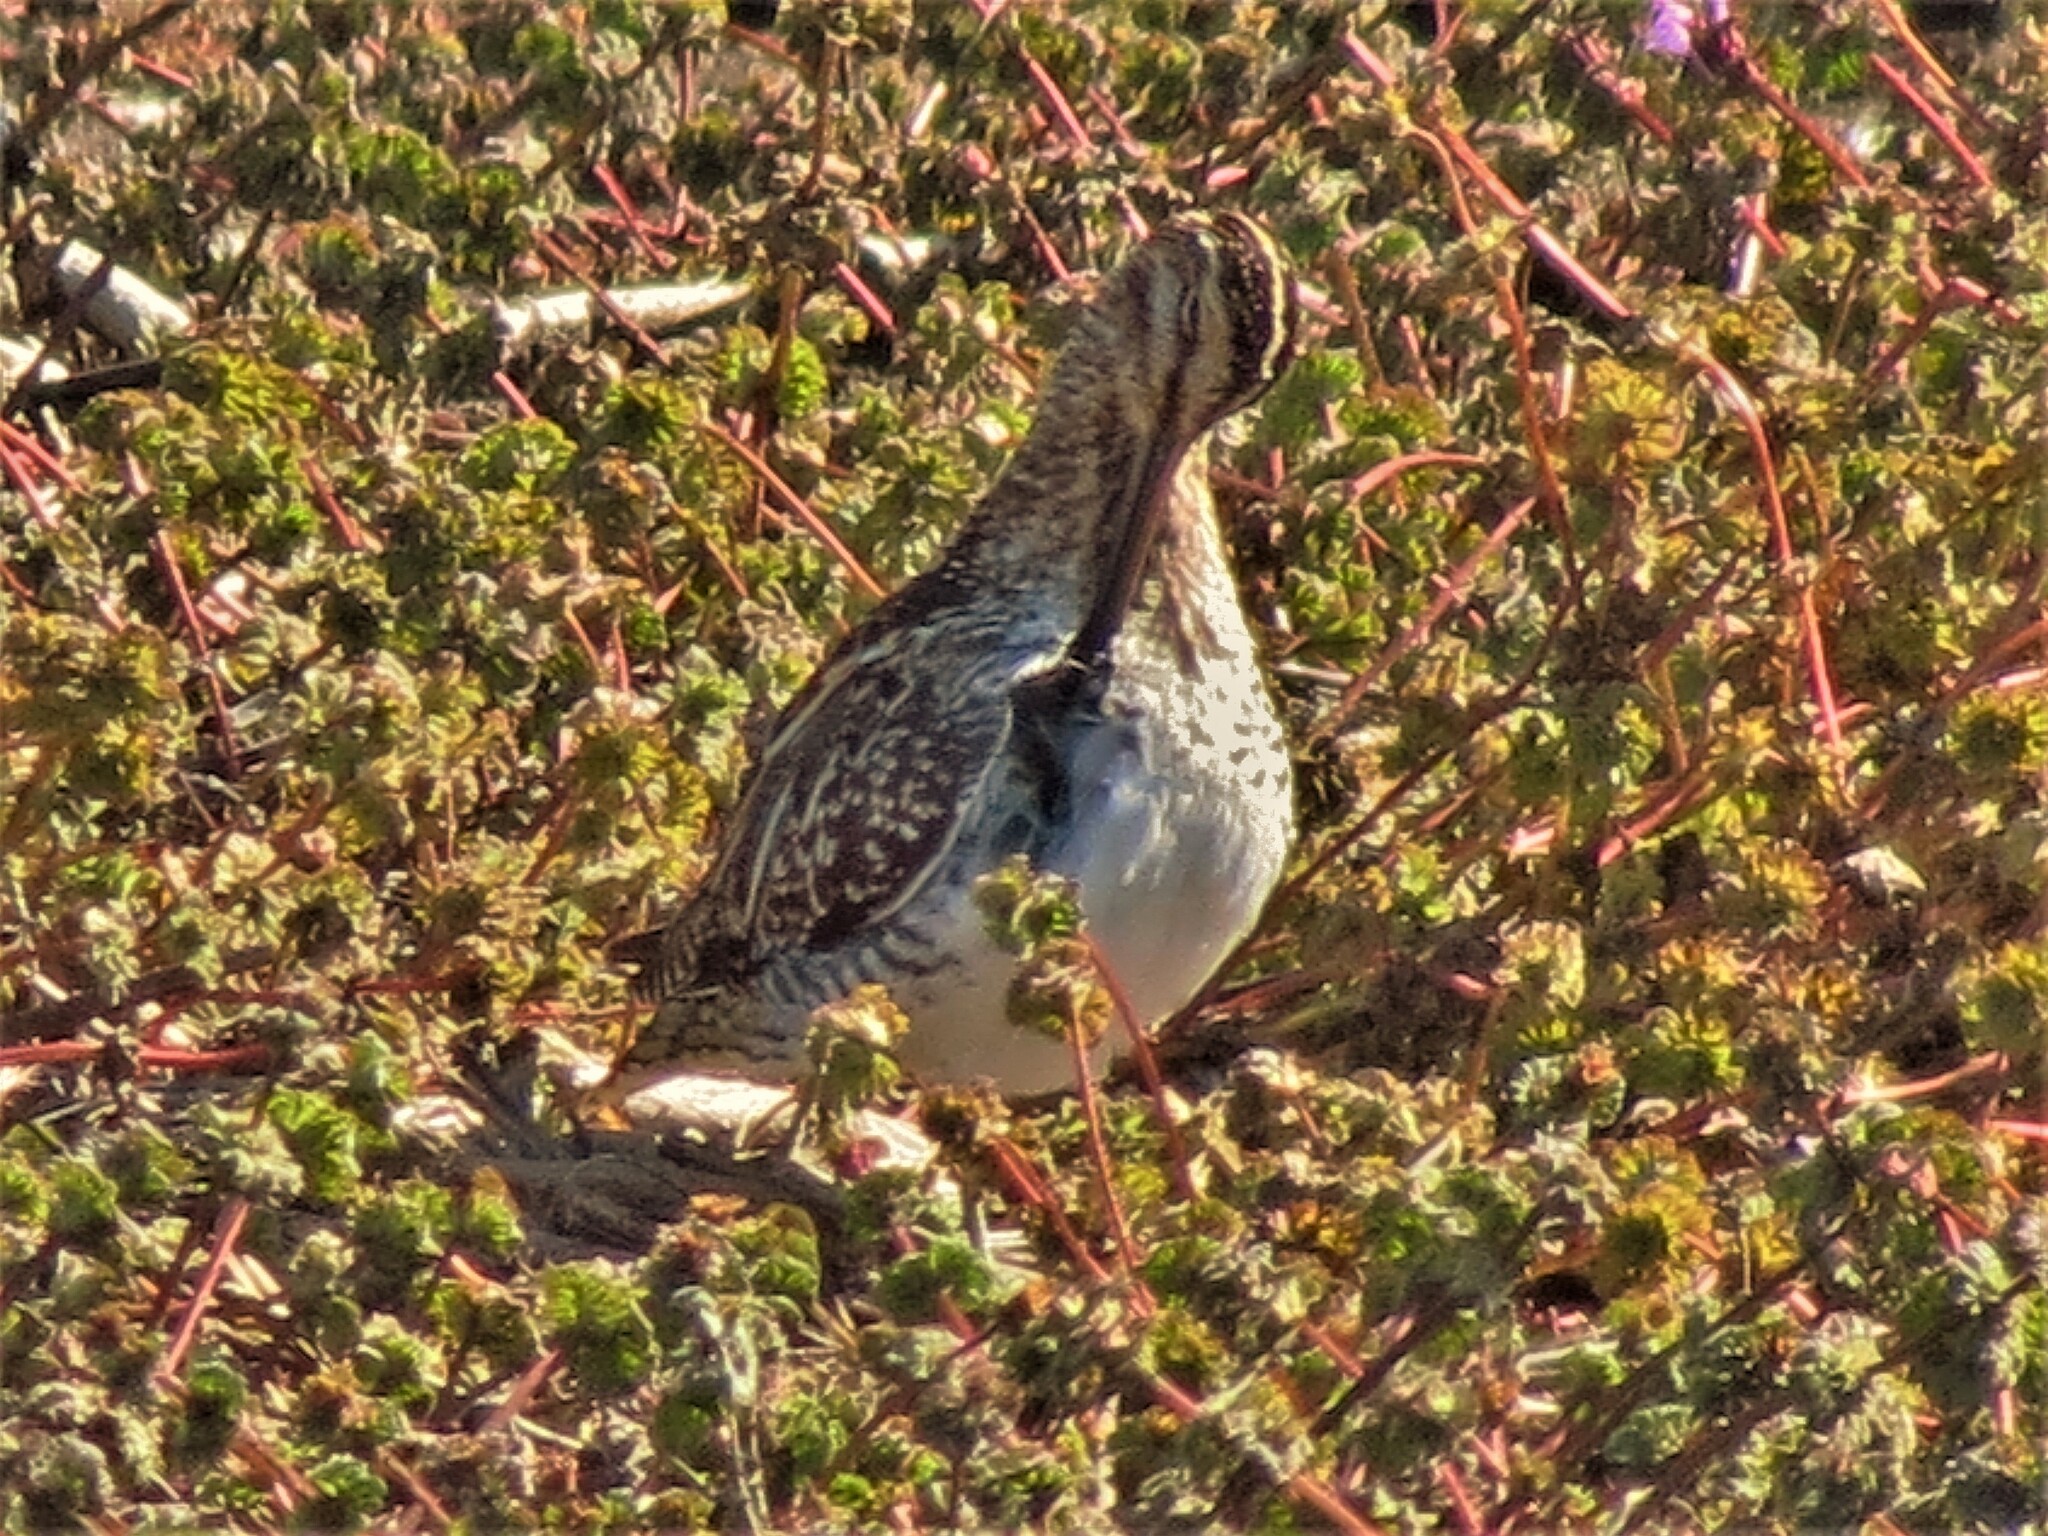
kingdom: Animalia
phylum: Chordata
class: Aves
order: Charadriiformes
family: Scolopacidae
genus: Gallinago
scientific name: Gallinago delicata
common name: Wilson's snipe
